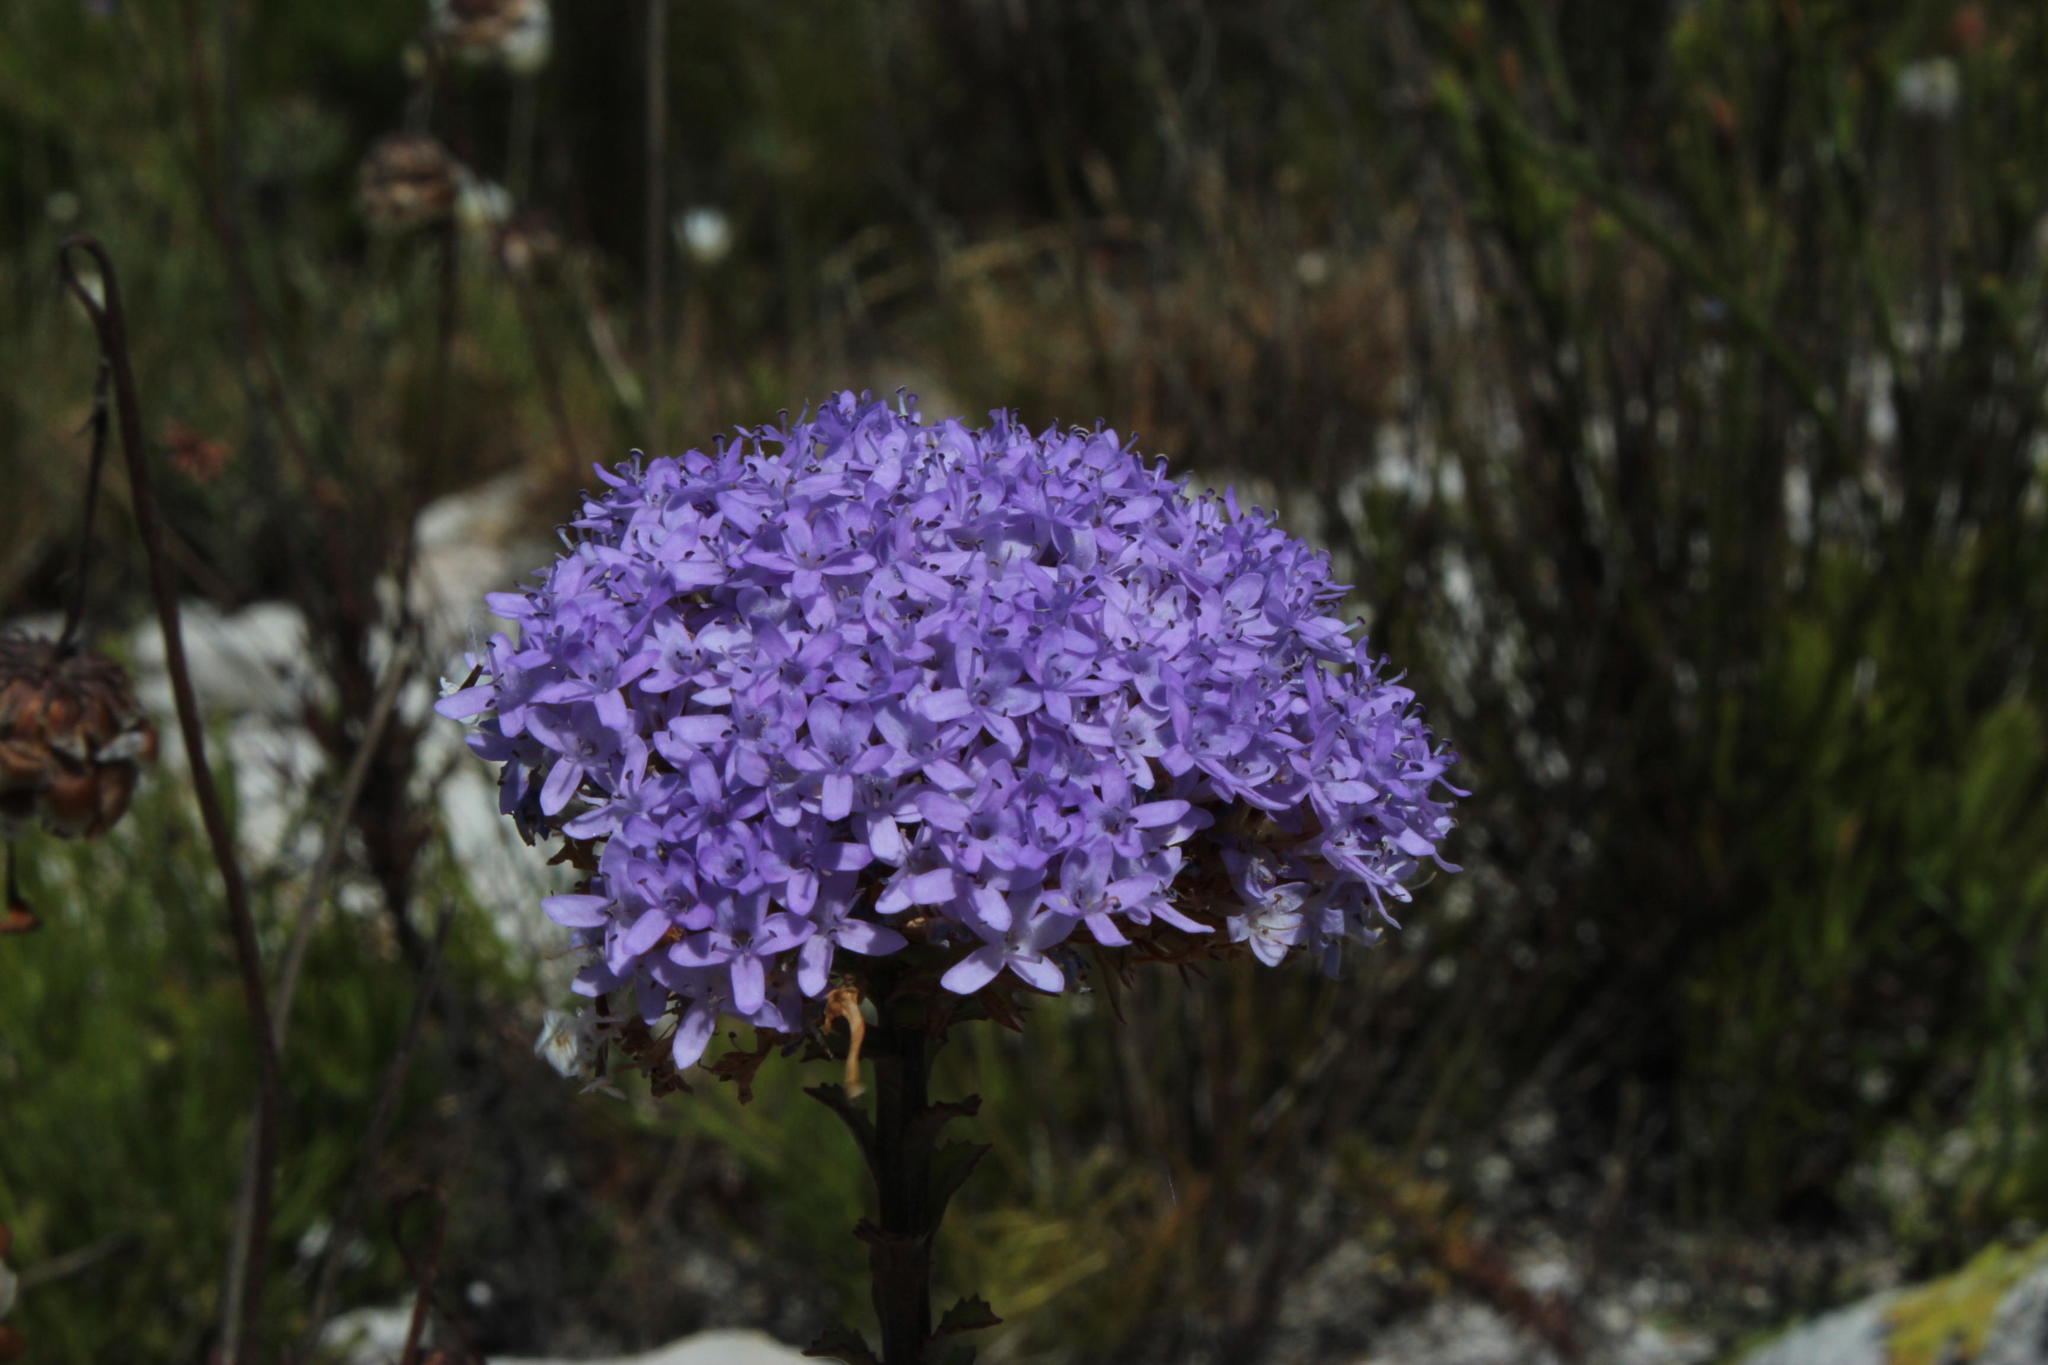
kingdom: Plantae
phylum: Tracheophyta
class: Magnoliopsida
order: Lamiales
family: Scrophulariaceae
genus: Pseudoselago
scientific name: Pseudoselago serrata
